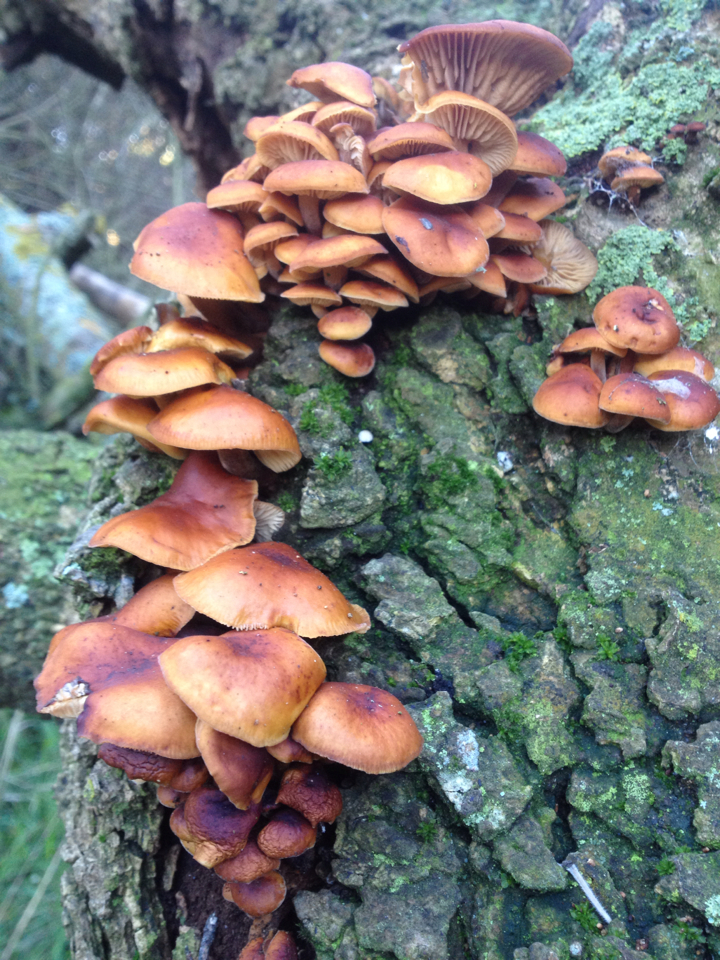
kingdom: Fungi
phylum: Basidiomycota
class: Agaricomycetes
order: Agaricales
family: Physalacriaceae
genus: Flammulina
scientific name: Flammulina velutipes
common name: Velvet shank
